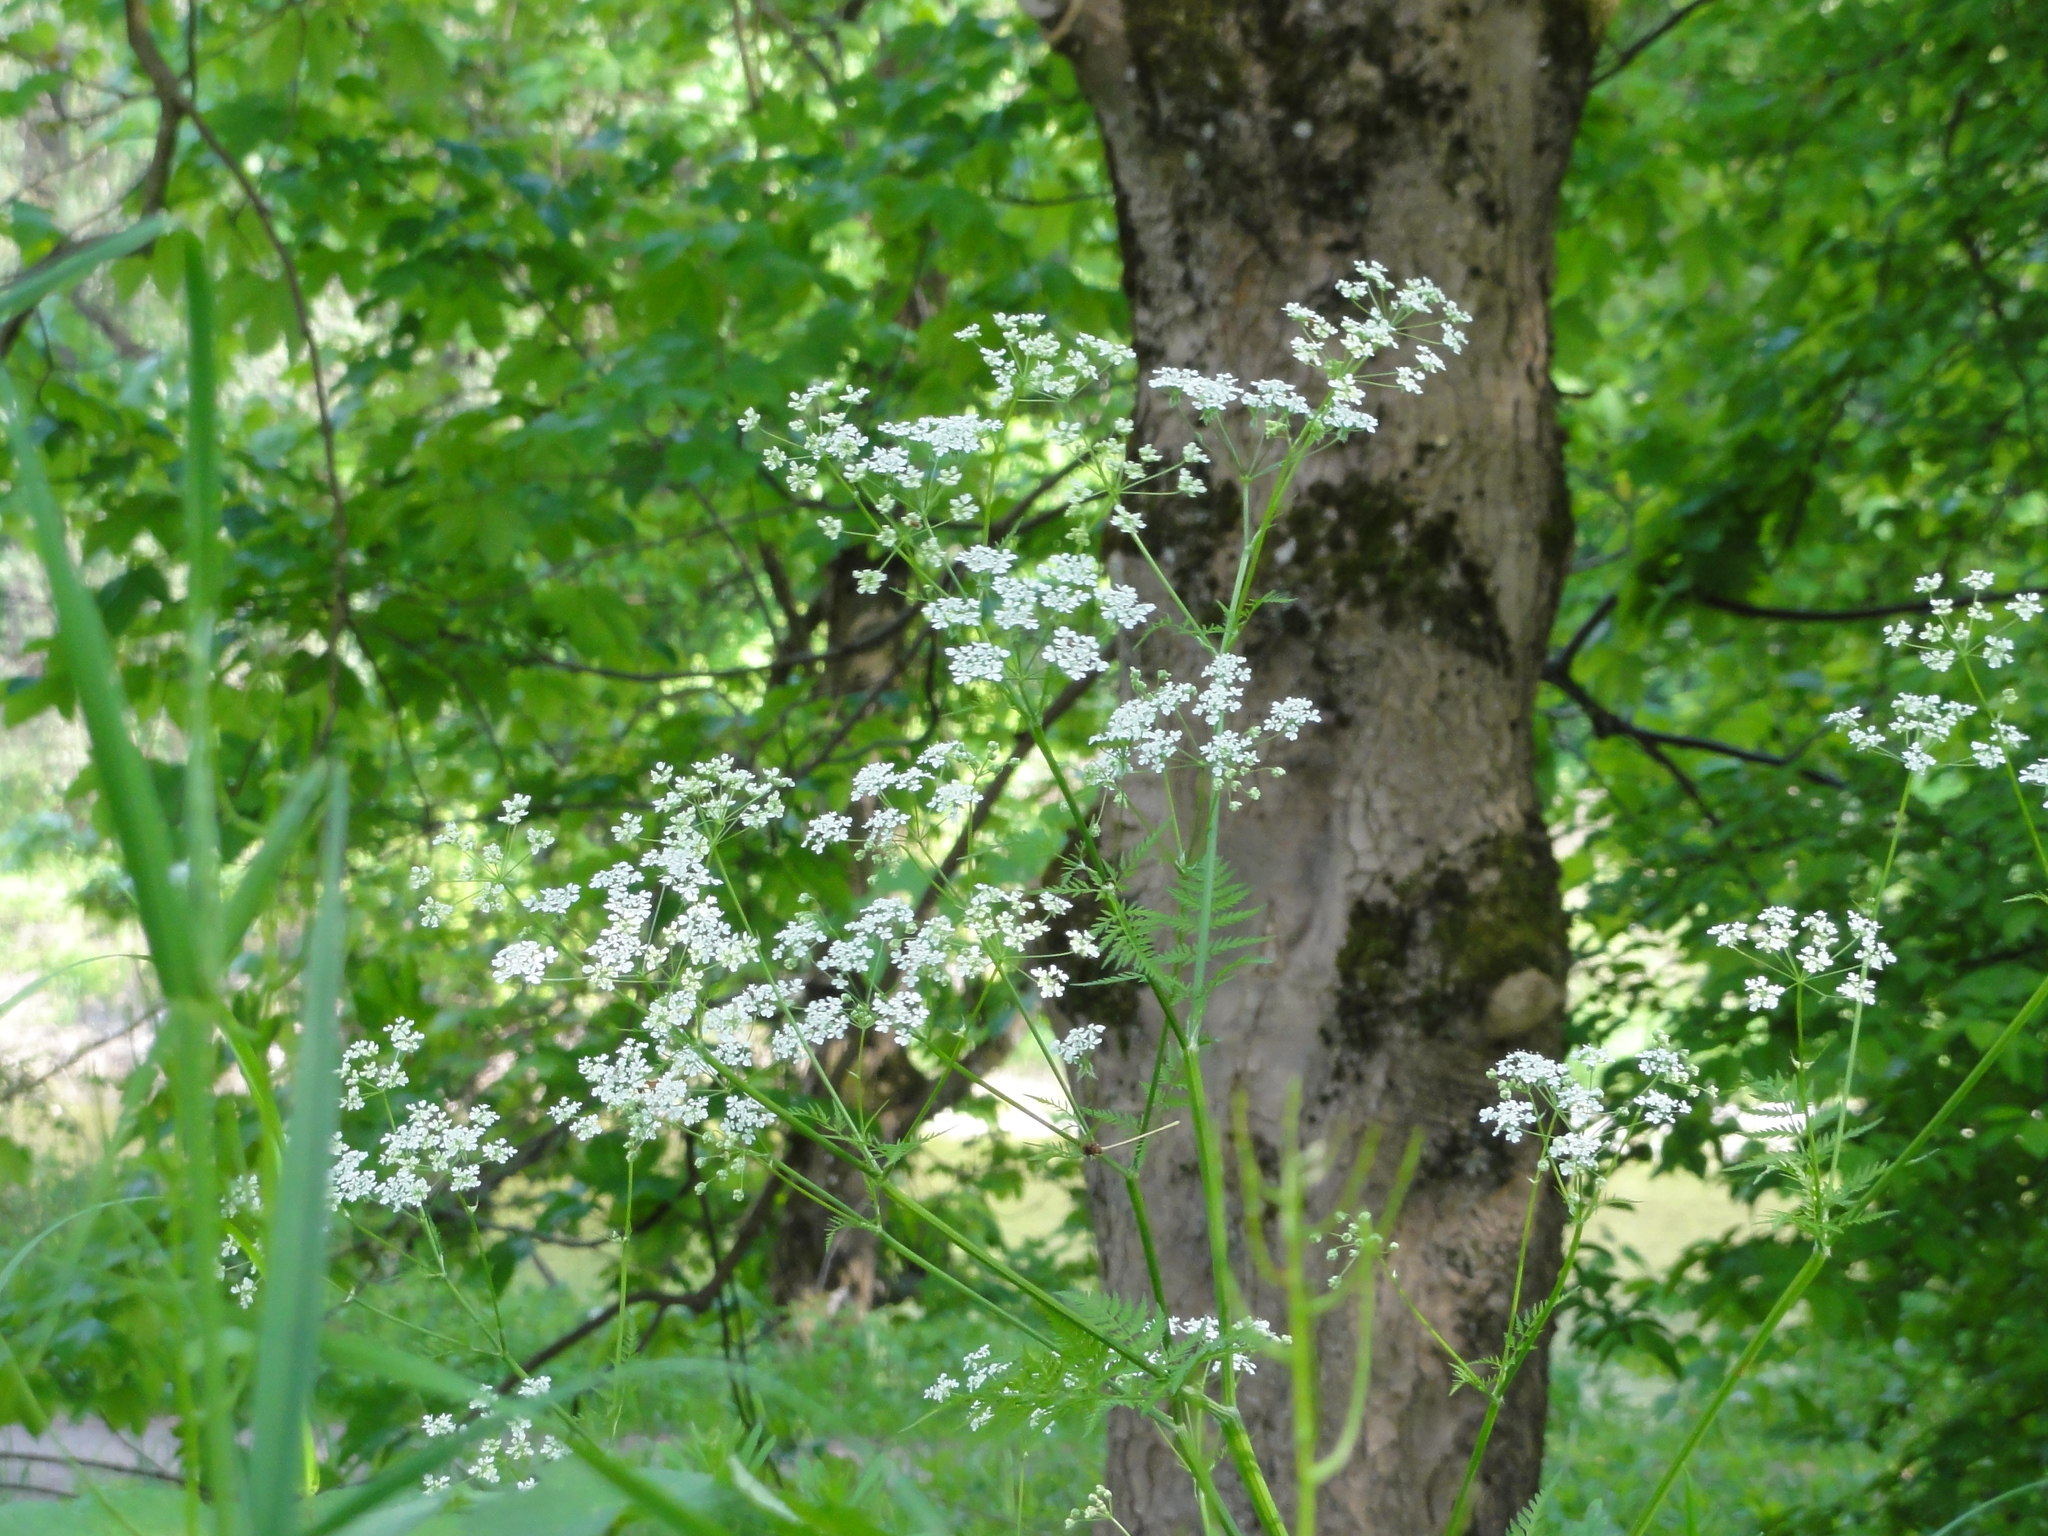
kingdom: Plantae
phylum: Tracheophyta
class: Magnoliopsida
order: Apiales
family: Apiaceae
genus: Anthriscus
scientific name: Anthriscus sylvestris
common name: Cow parsley
